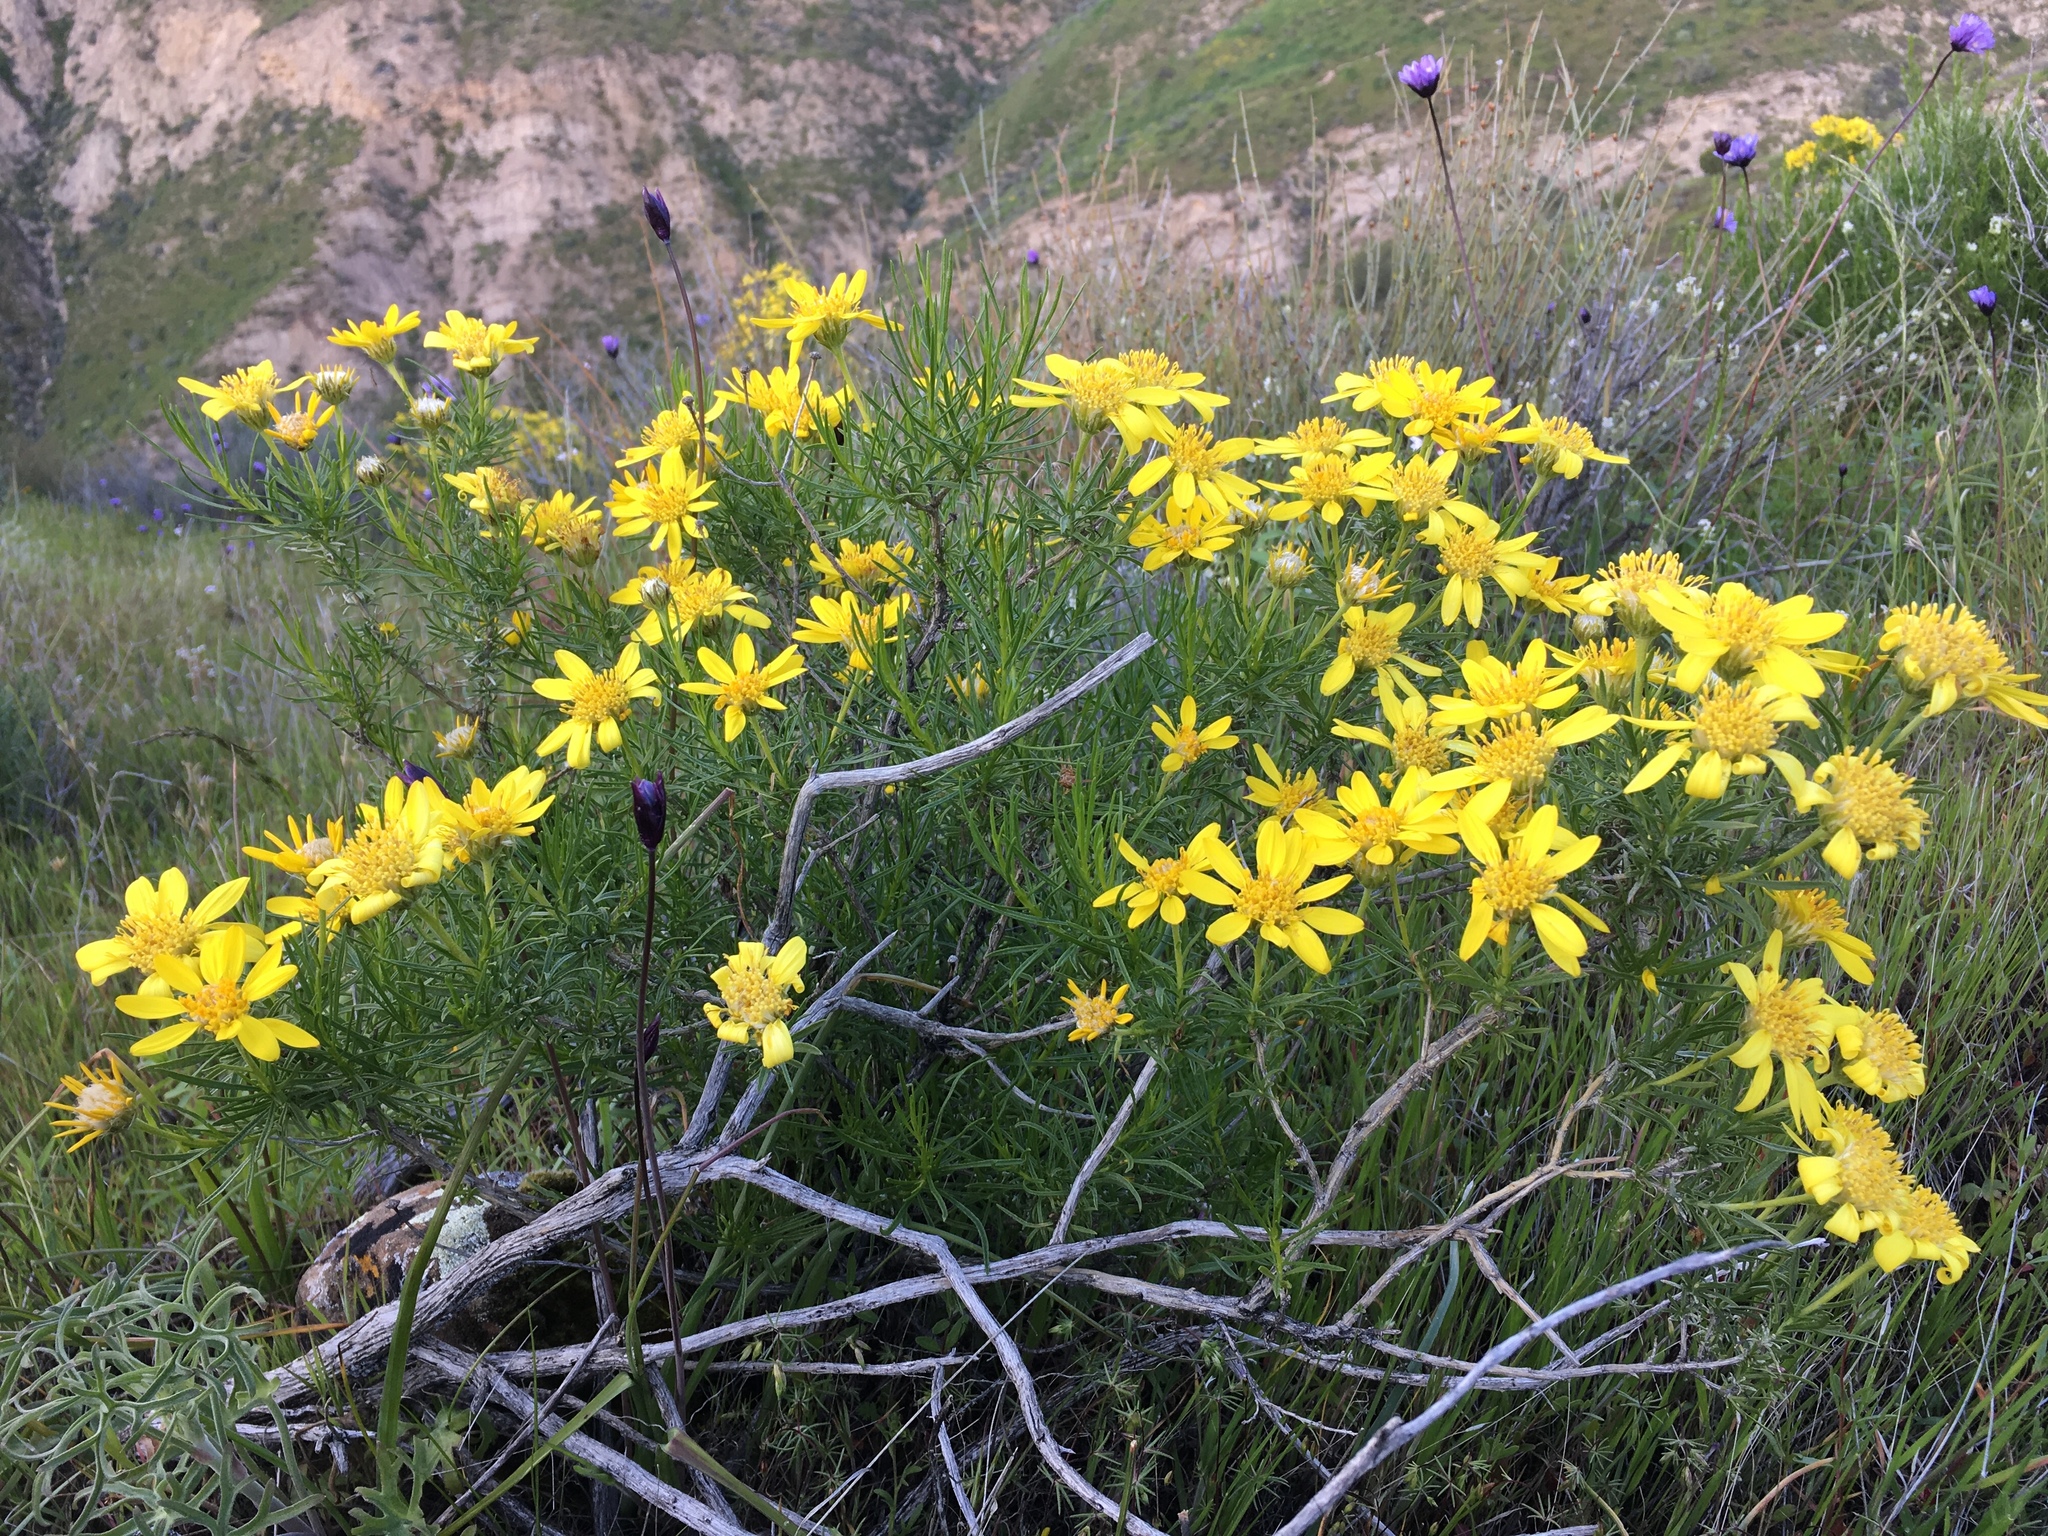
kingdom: Plantae
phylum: Tracheophyta
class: Magnoliopsida
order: Asterales
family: Asteraceae
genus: Ericameria
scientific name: Ericameria linearifolia
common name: Interior goldenbush
